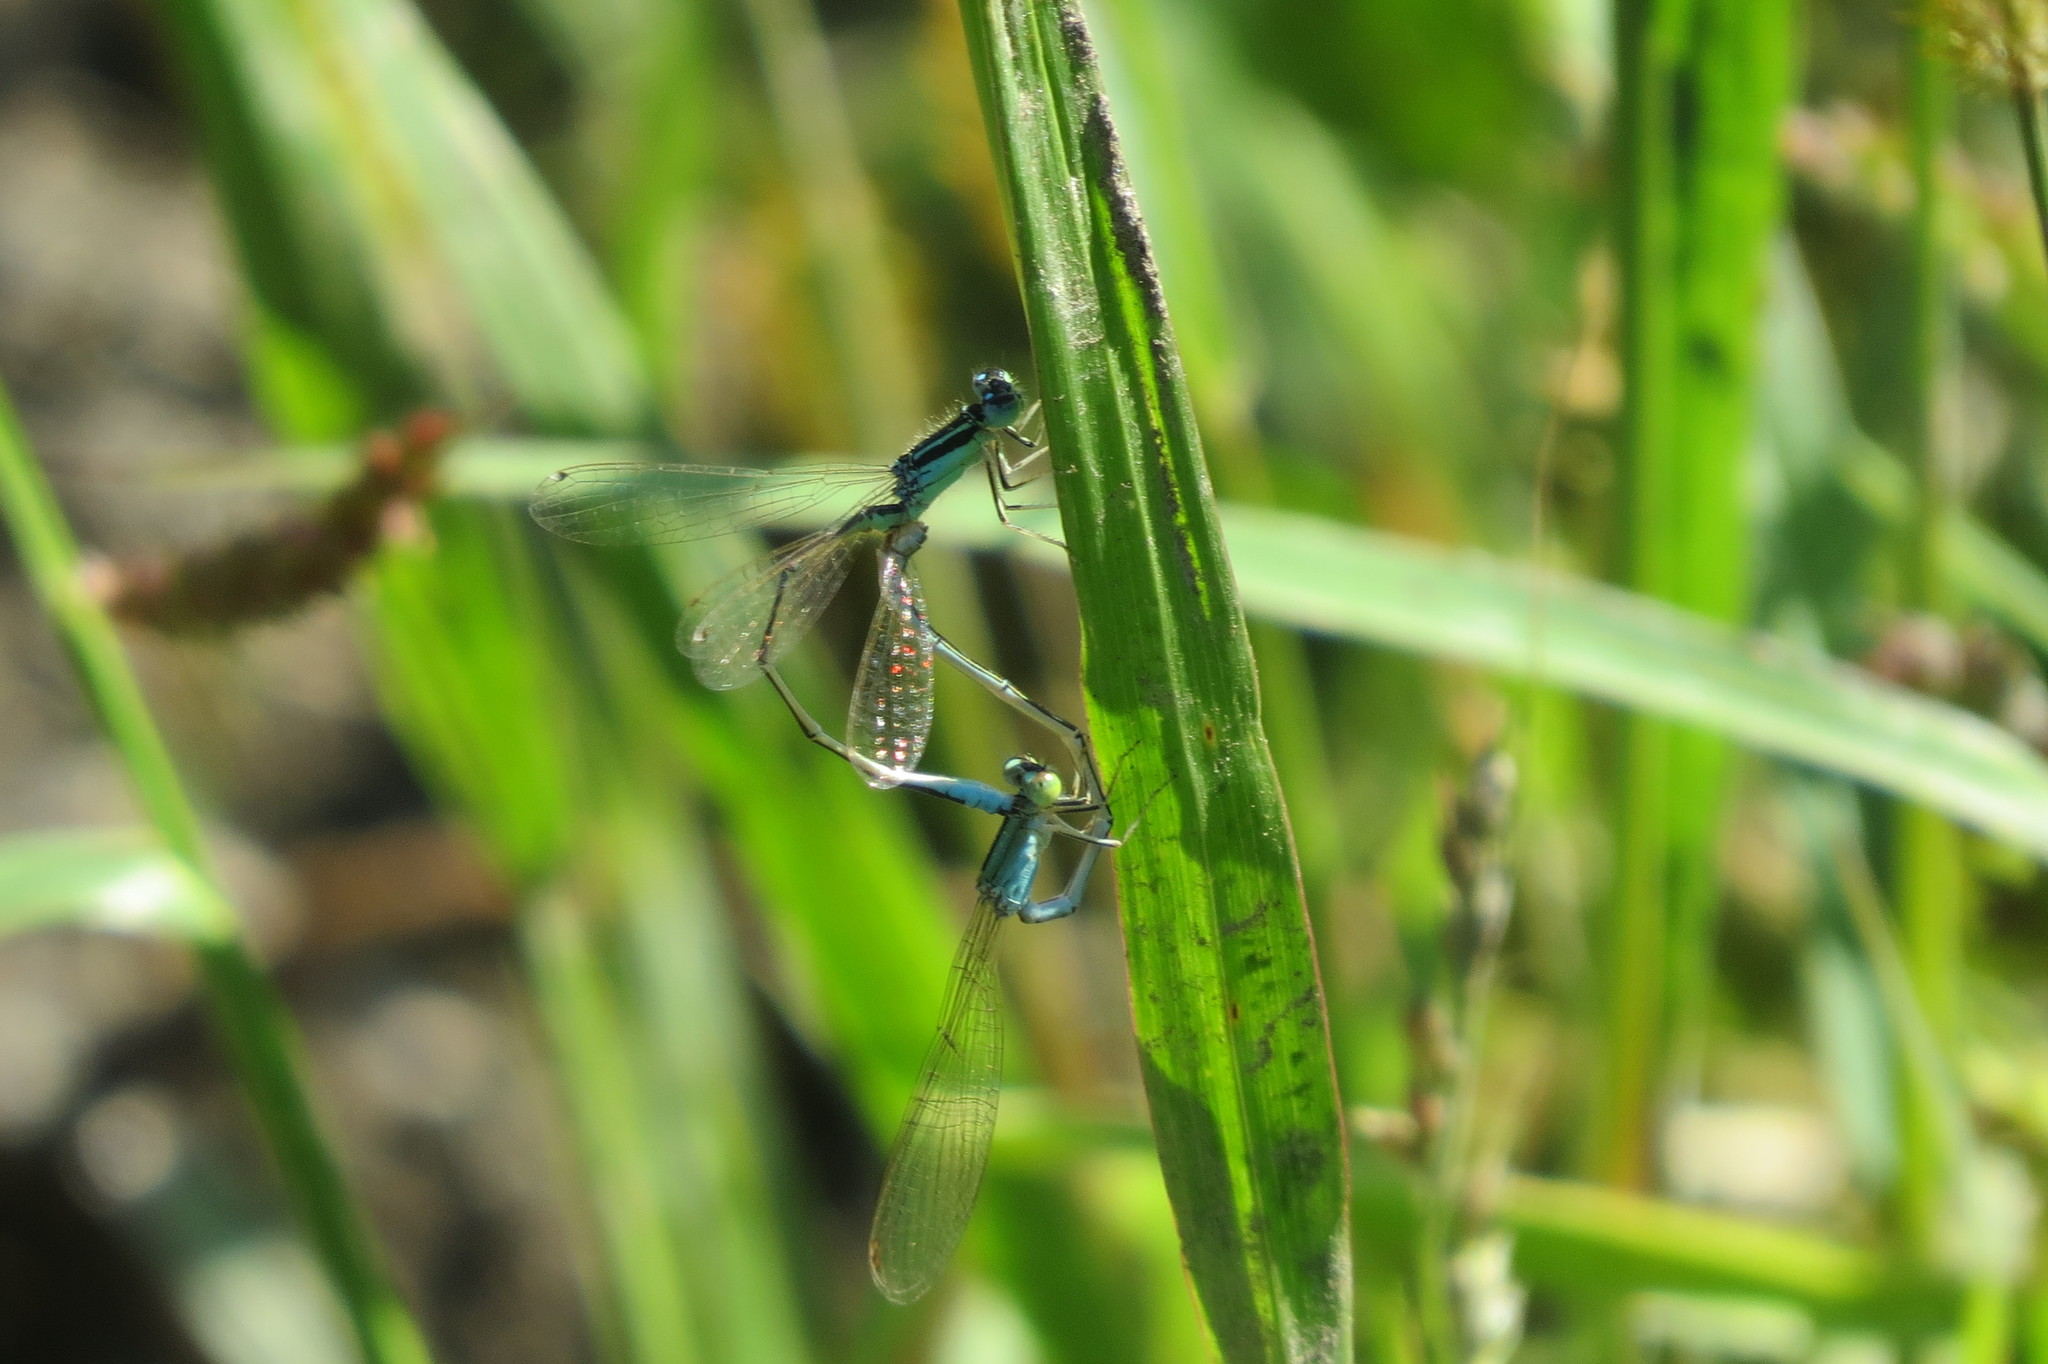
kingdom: Animalia
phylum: Arthropoda
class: Insecta
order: Odonata
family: Coenagrionidae
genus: Ischnura
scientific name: Ischnura pumilio
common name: Scarce blue-tailed damselfly
